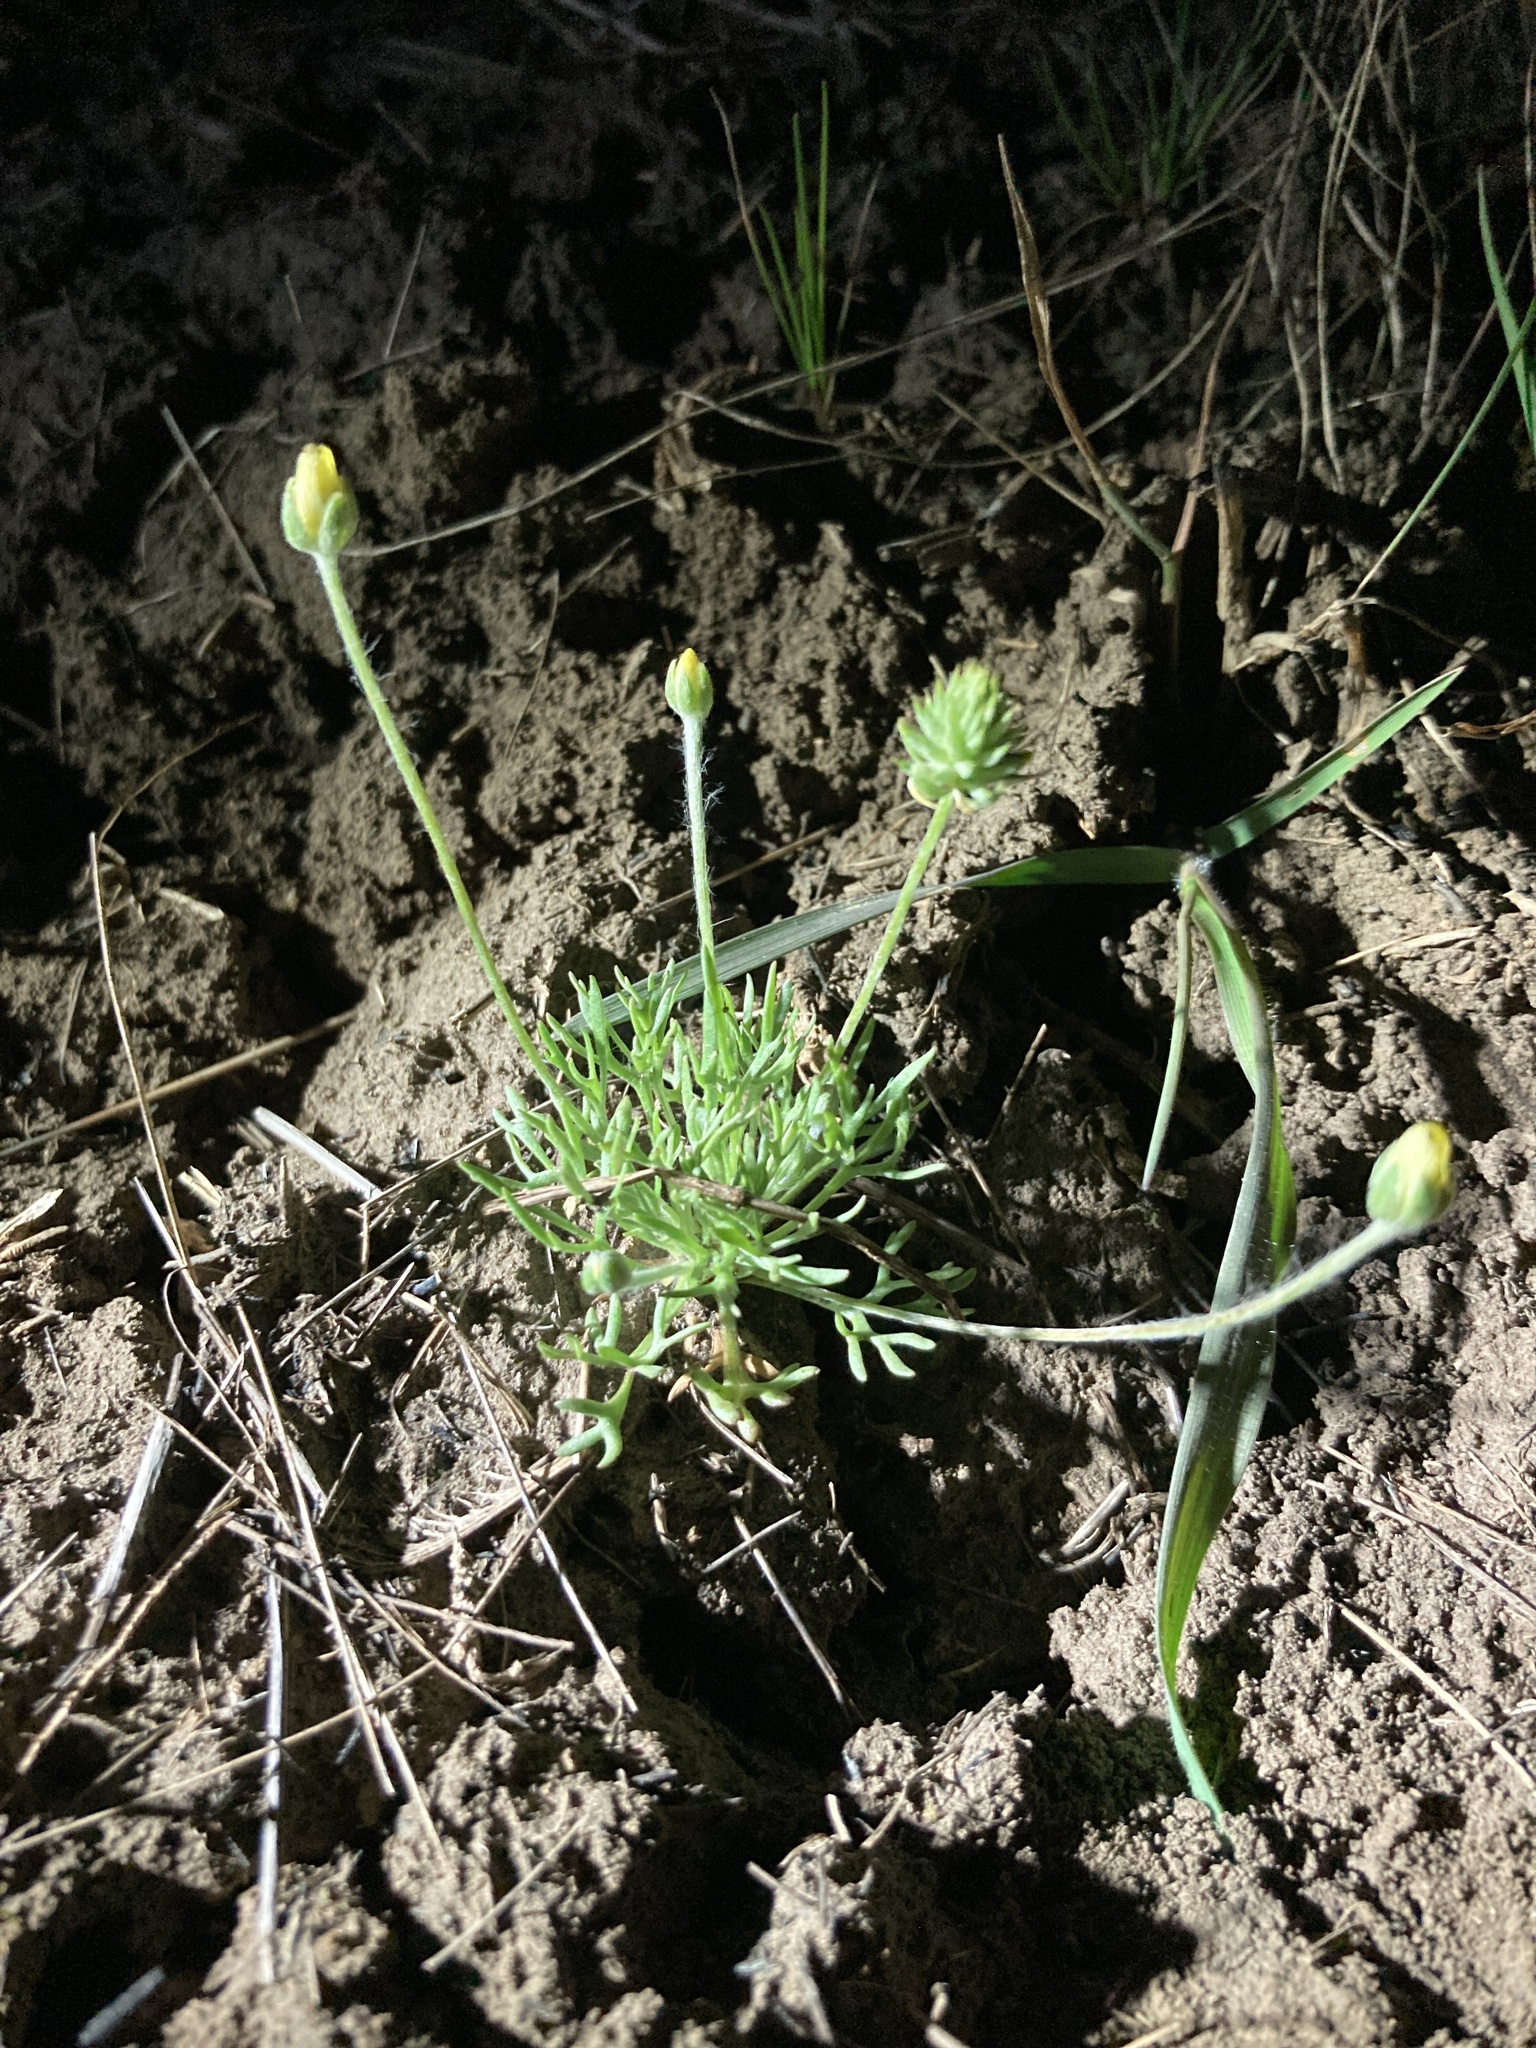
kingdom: Plantae
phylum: Tracheophyta
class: Magnoliopsida
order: Ranunculales
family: Ranunculaceae
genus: Ceratocephala
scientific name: Ceratocephala orthoceras
